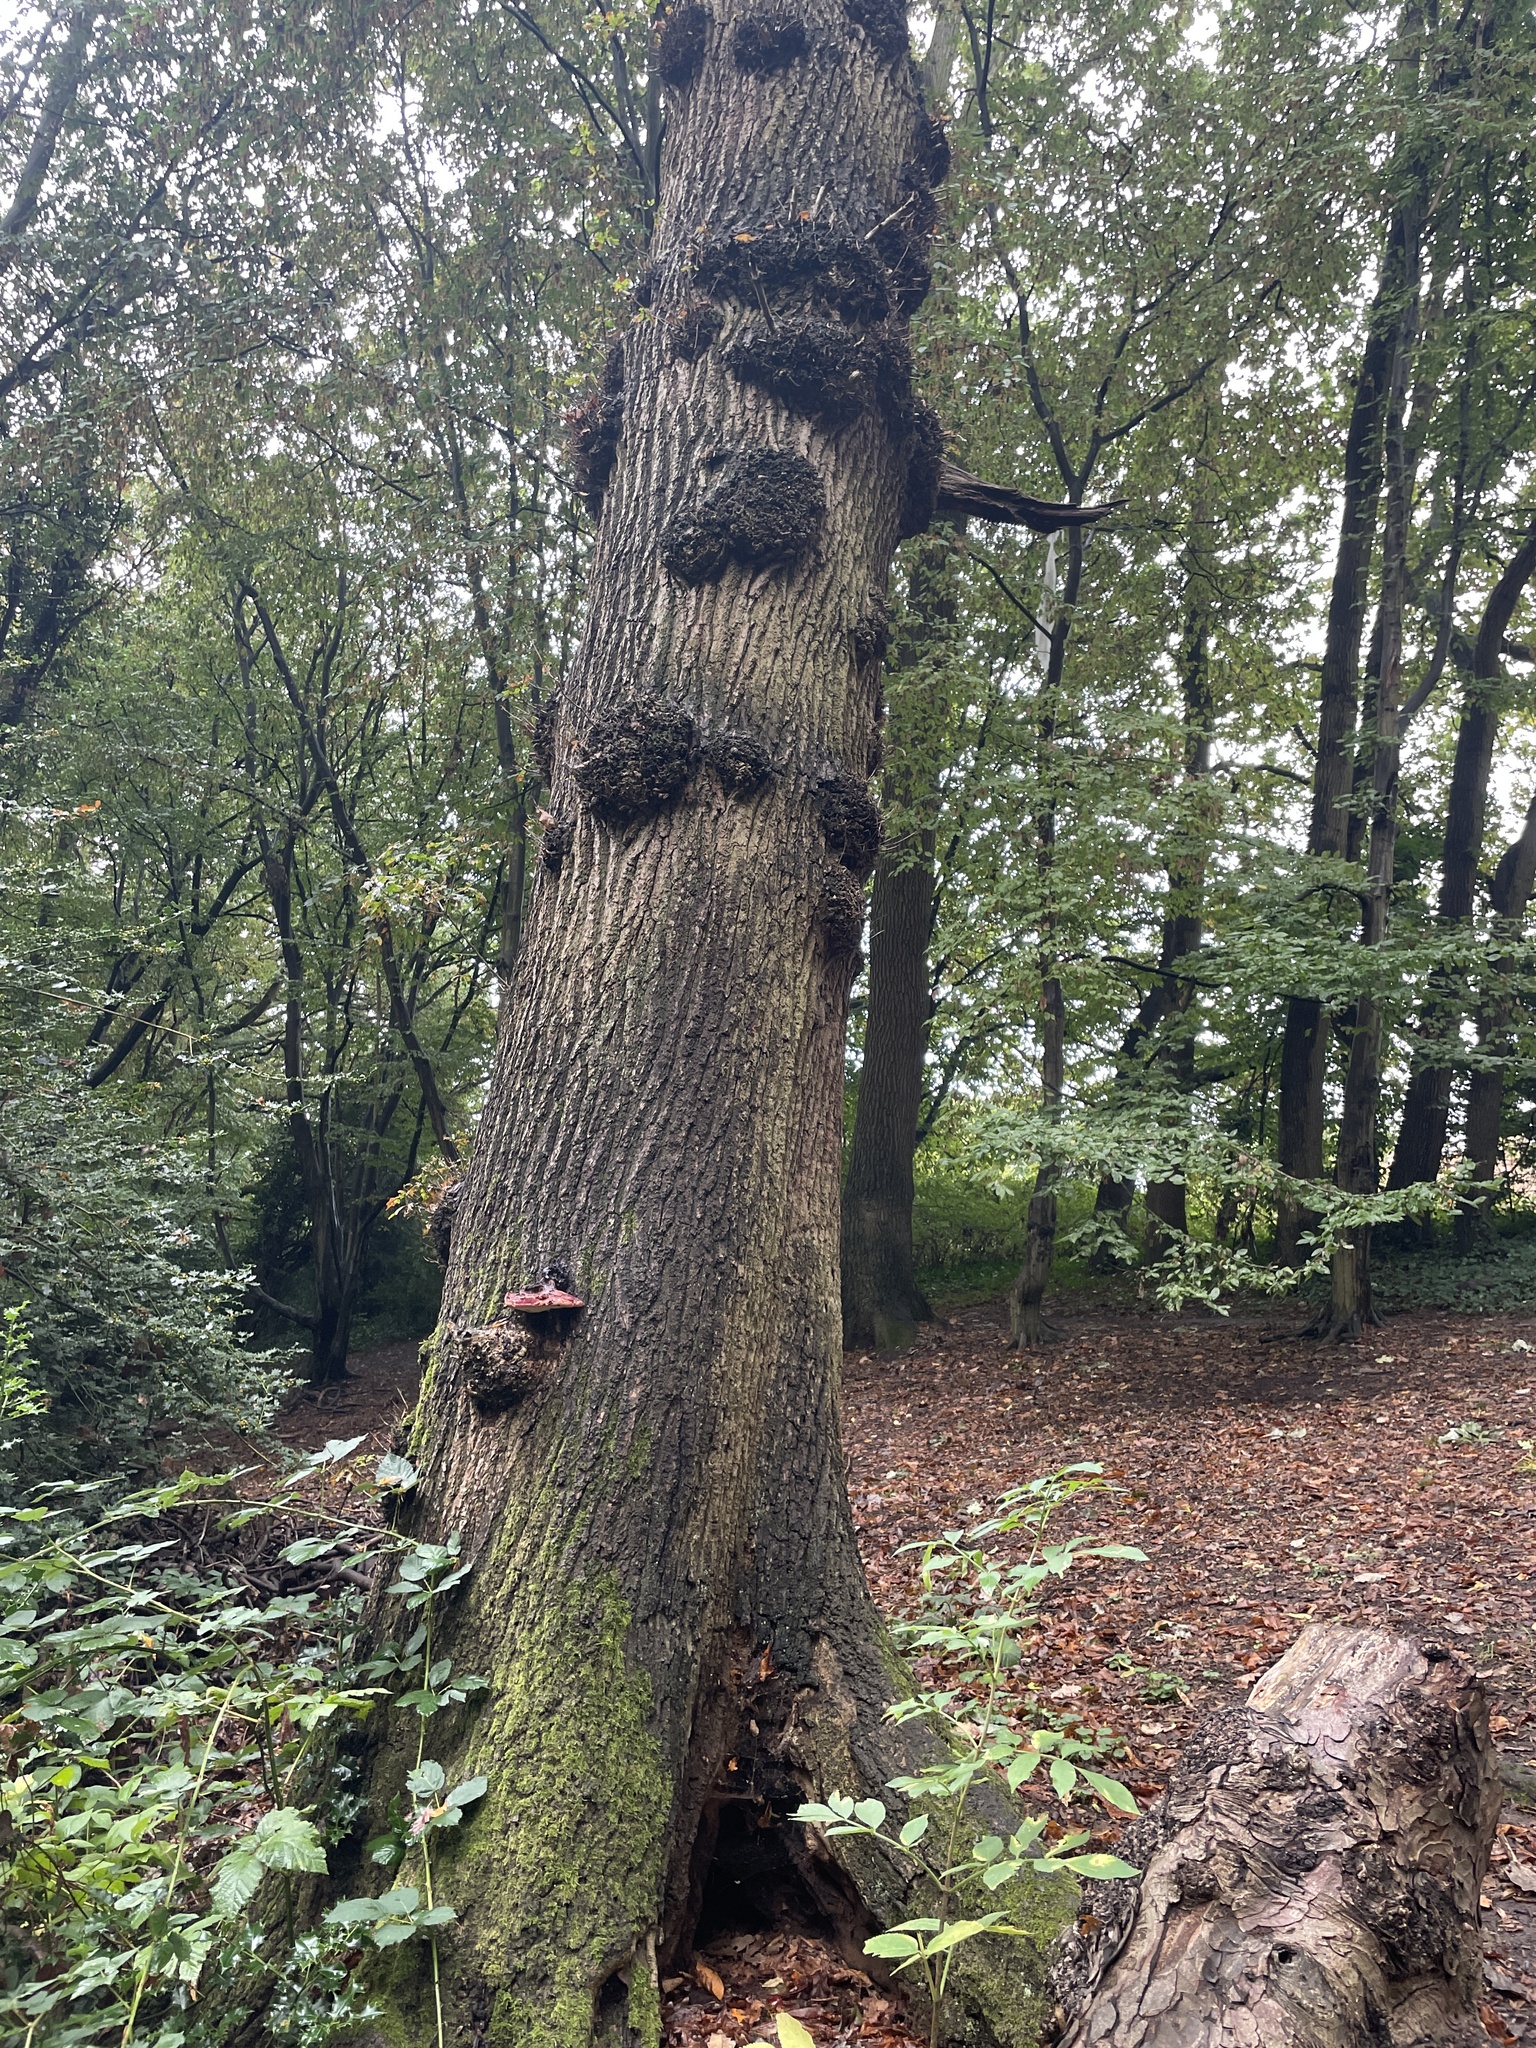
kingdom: Fungi
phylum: Basidiomycota
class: Agaricomycetes
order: Agaricales
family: Fistulinaceae
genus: Fistulina
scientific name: Fistulina hepatica
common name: Beef-steak fungus
